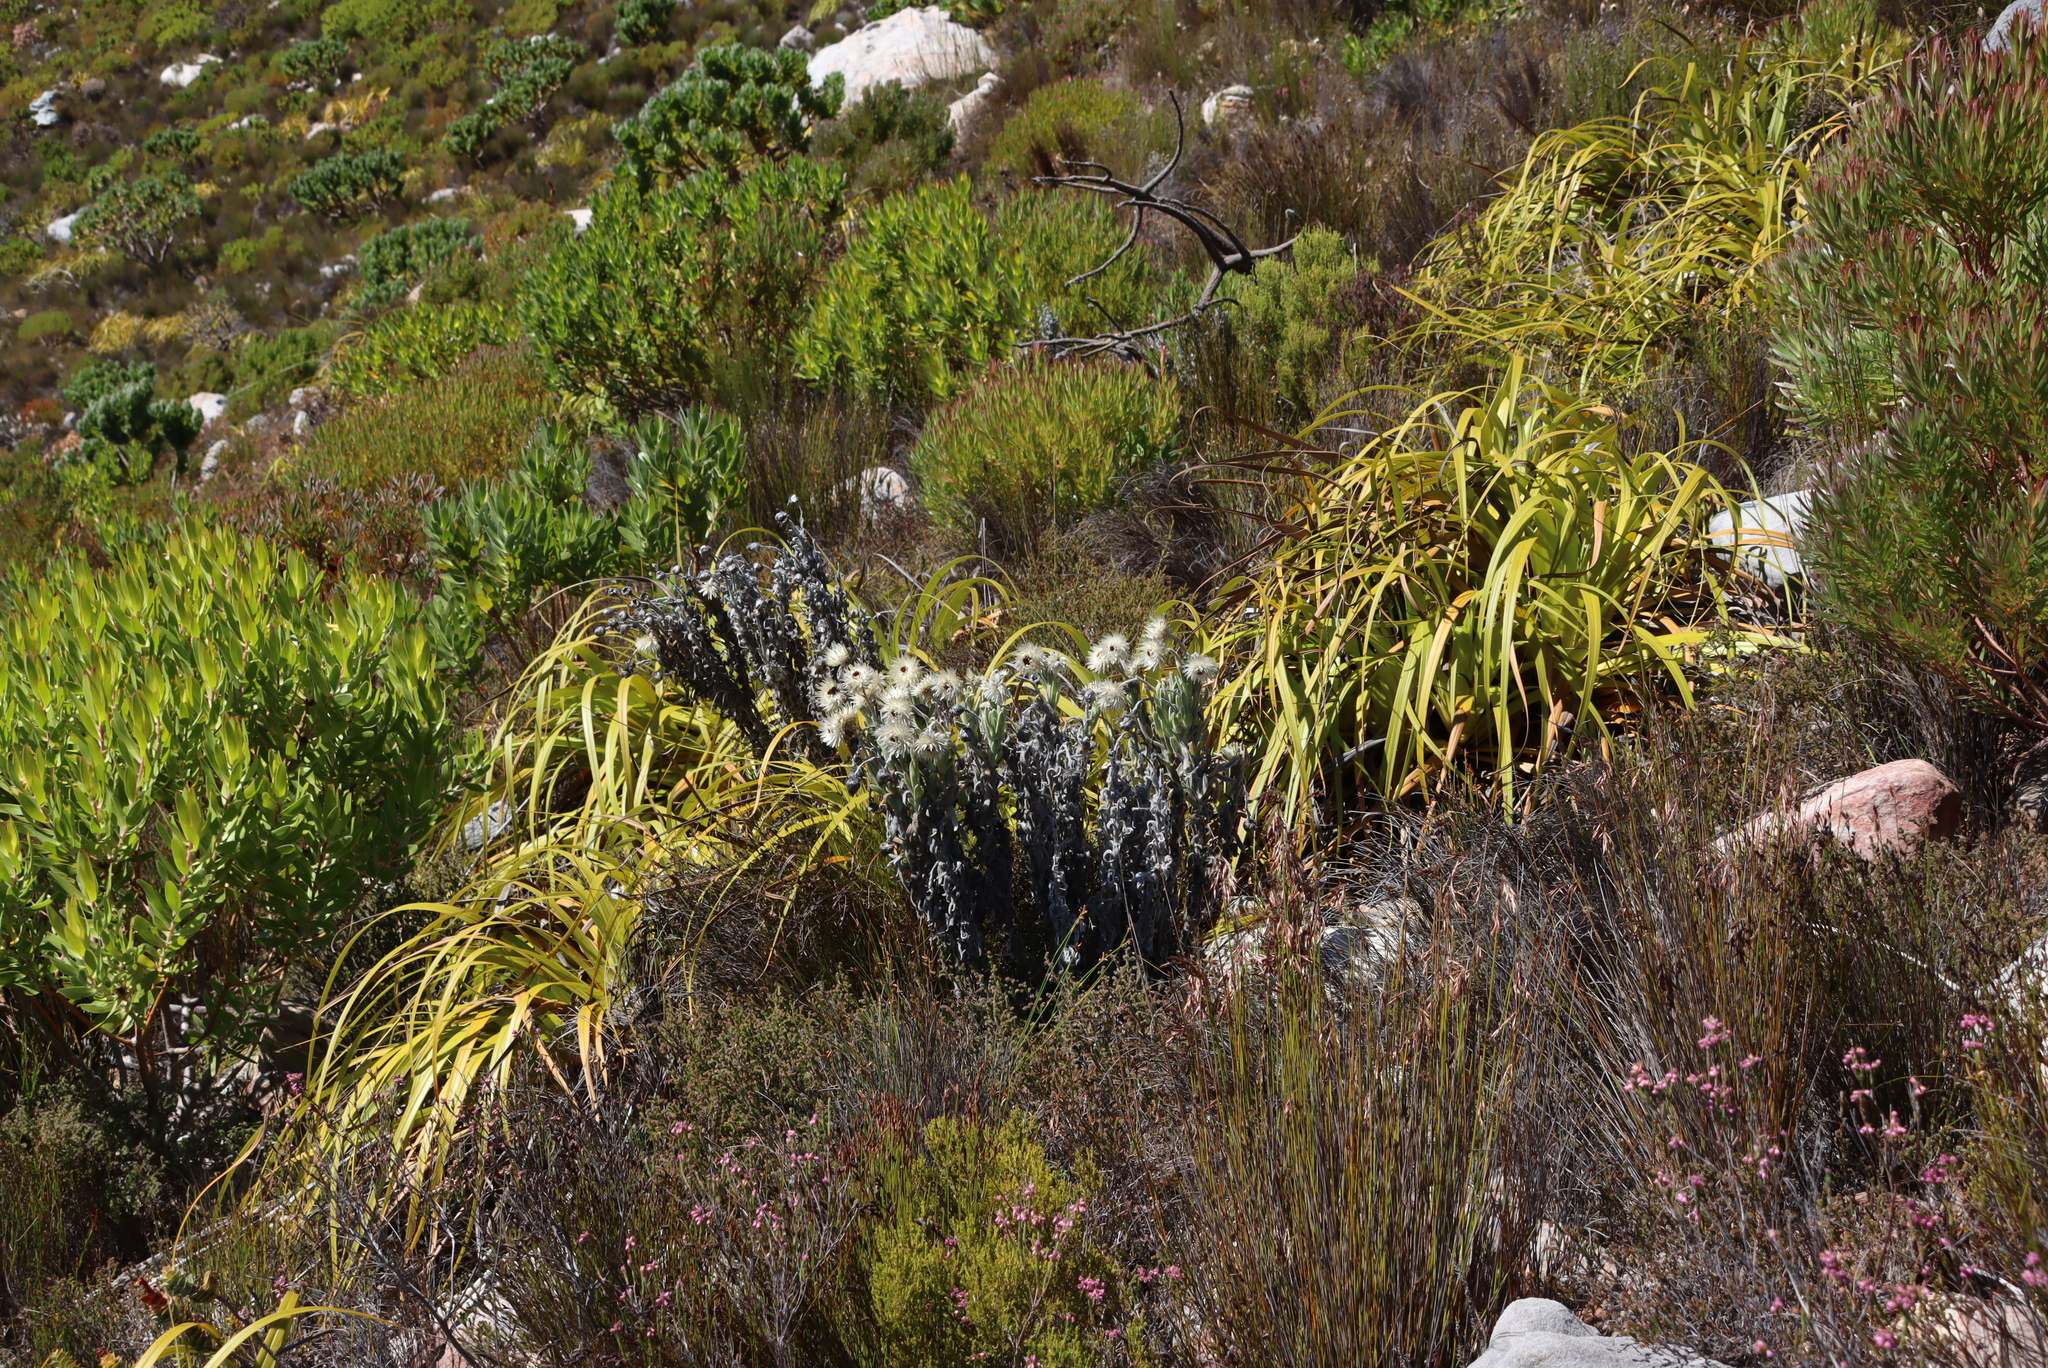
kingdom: Plantae
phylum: Tracheophyta
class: Liliopsida
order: Poales
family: Cyperaceae
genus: Tetraria
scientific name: Tetraria thermalis
